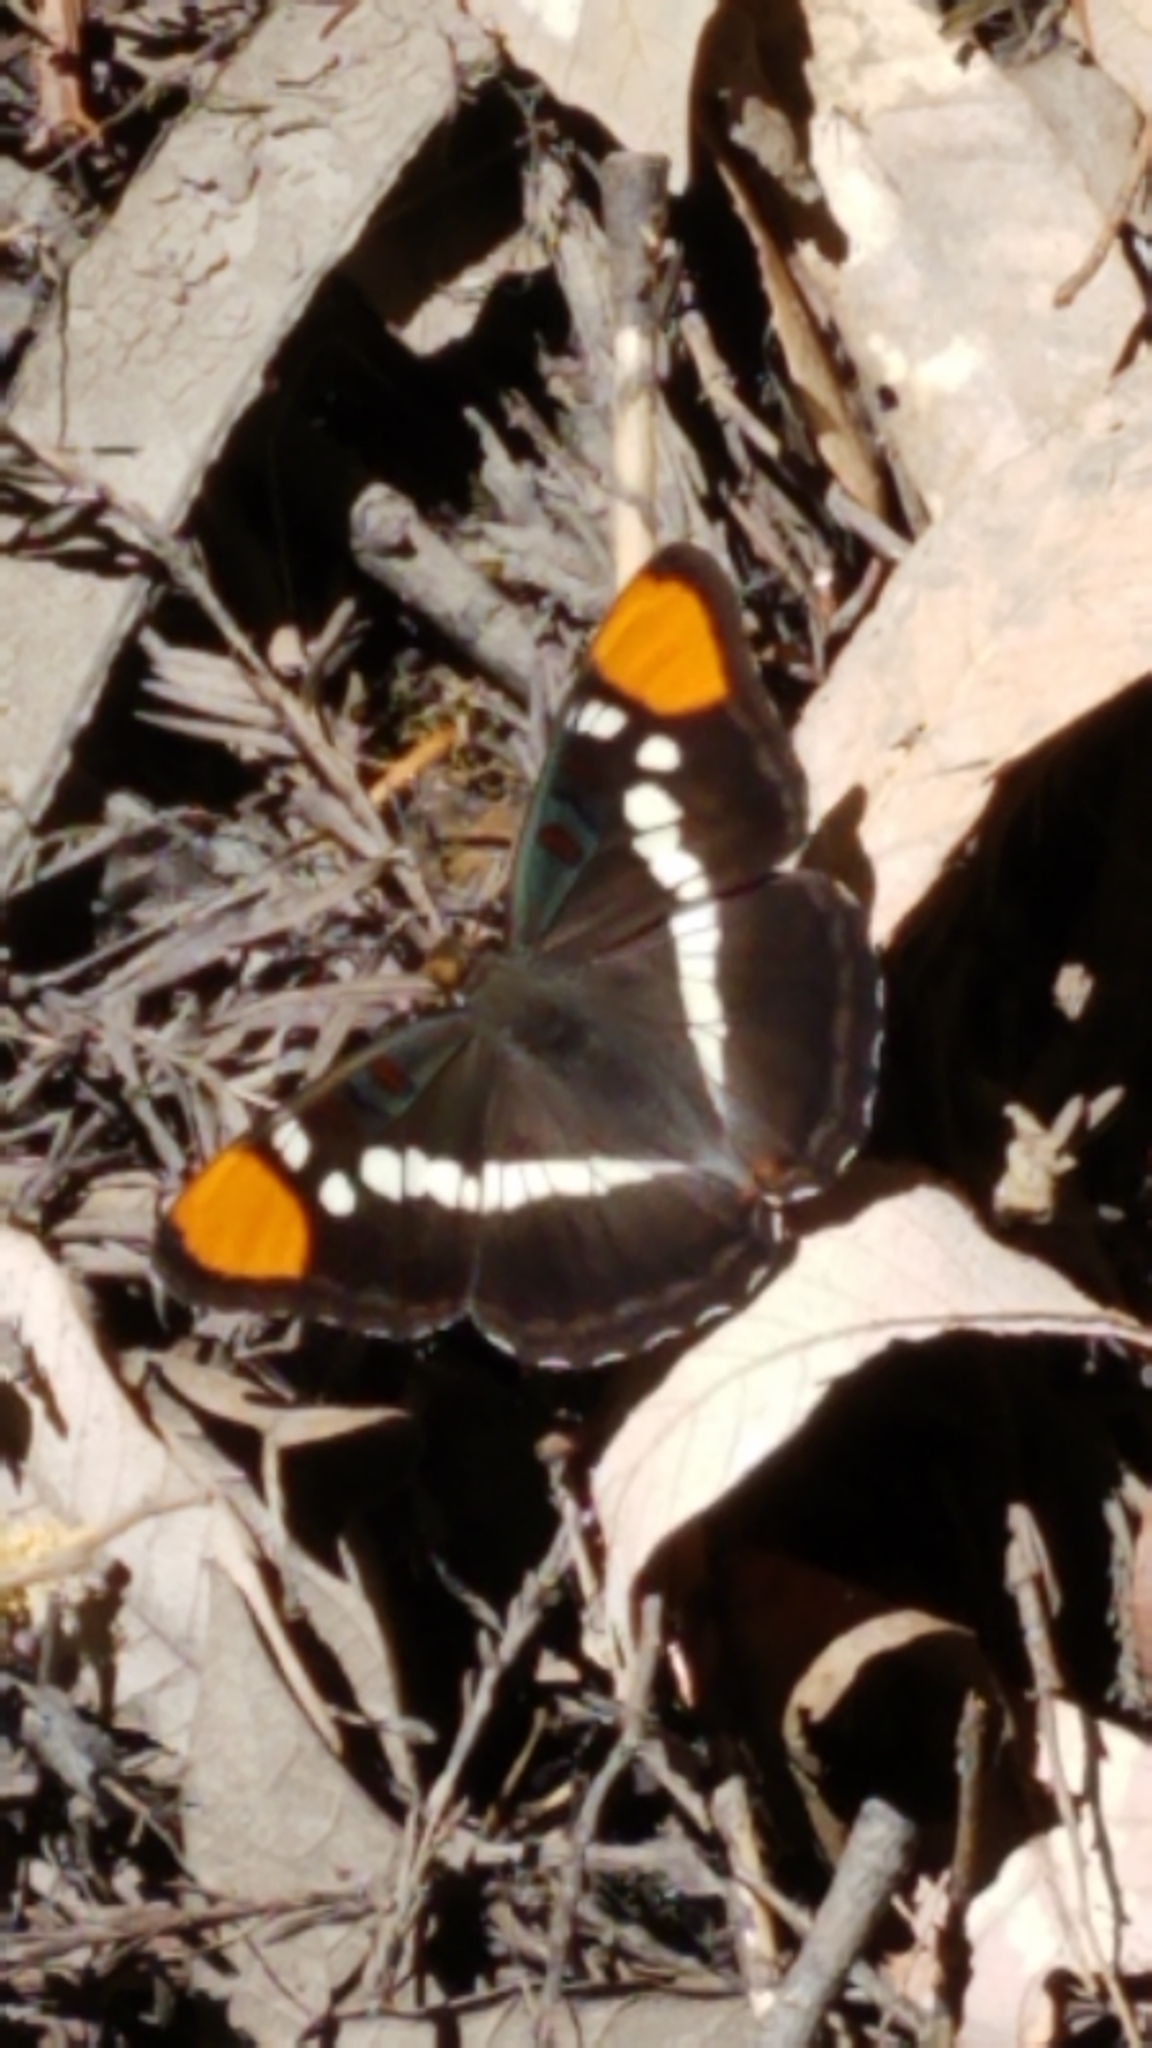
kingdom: Animalia
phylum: Arthropoda
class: Insecta
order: Lepidoptera
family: Nymphalidae
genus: Limenitis
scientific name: Limenitis bredowii
